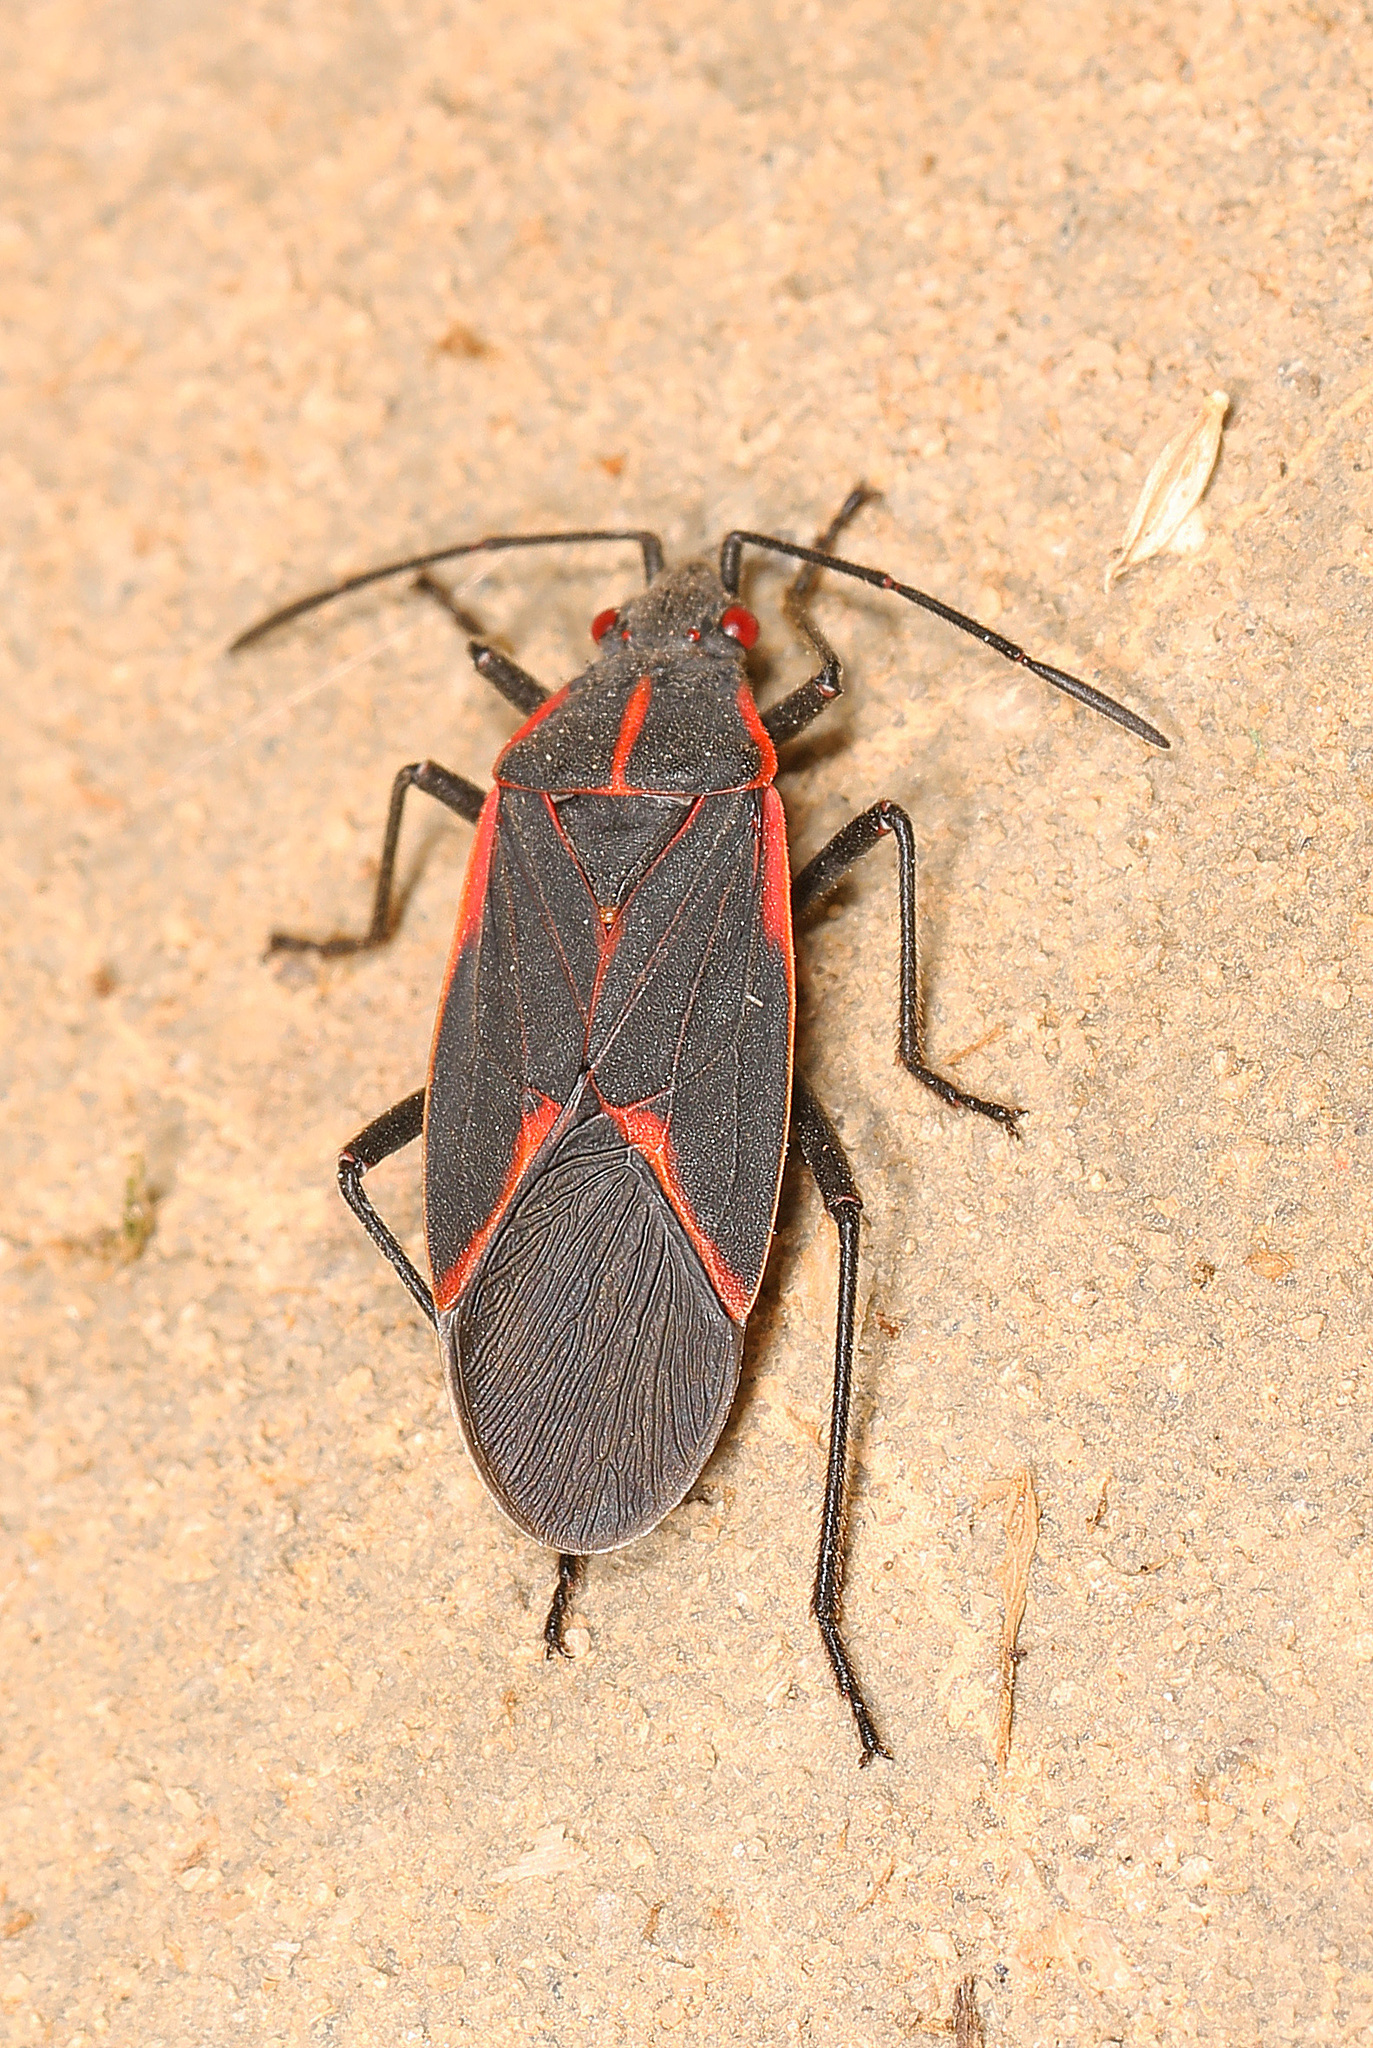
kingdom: Animalia
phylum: Arthropoda
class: Insecta
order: Hemiptera
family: Rhopalidae
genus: Boisea
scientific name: Boisea trivittata
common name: Boxelder bug
